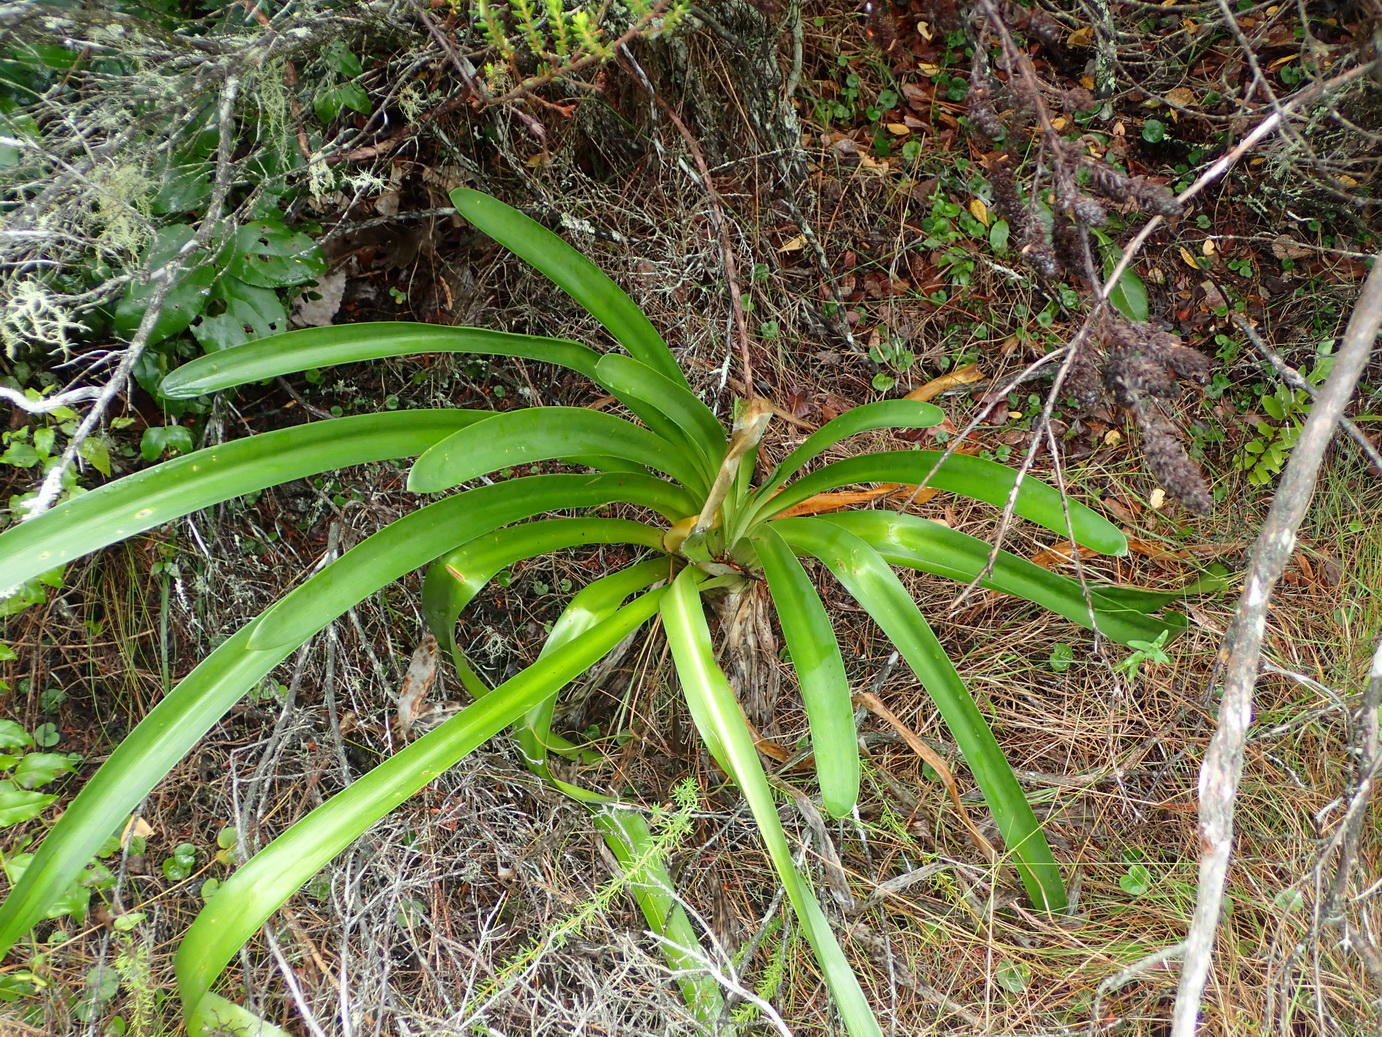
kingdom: Plantae
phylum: Tracheophyta
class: Liliopsida
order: Asparagales
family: Amaryllidaceae
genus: Agapanthus
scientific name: Agapanthus praecox
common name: African-lily
